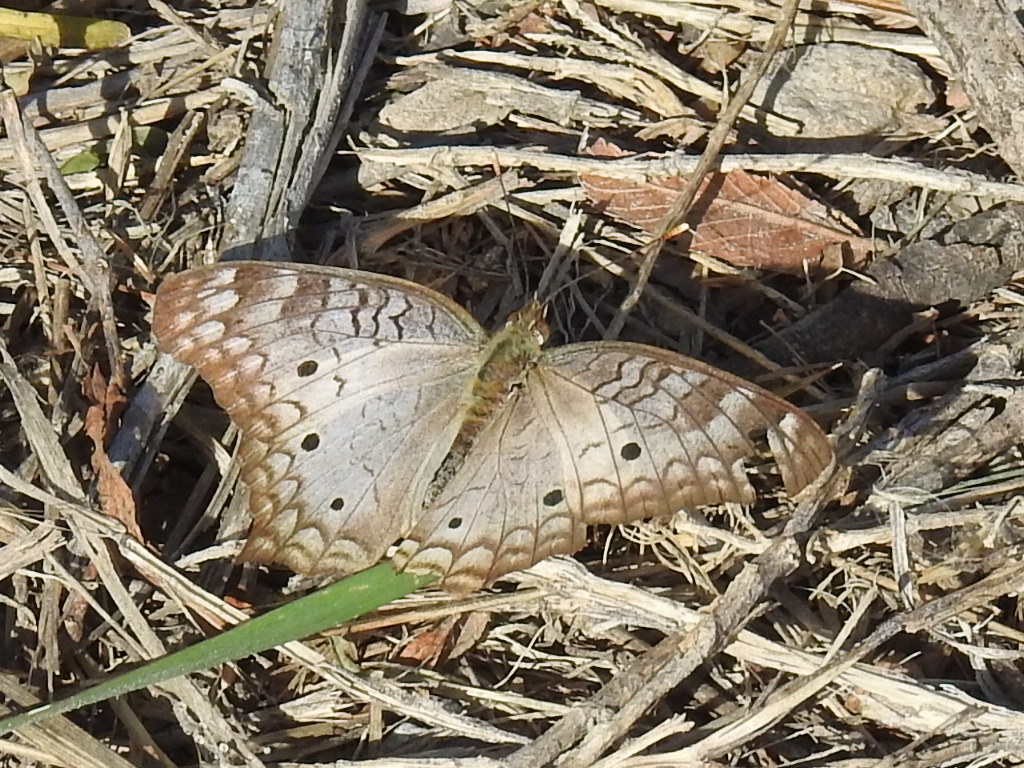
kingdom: Animalia
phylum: Arthropoda
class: Insecta
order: Lepidoptera
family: Nymphalidae
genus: Anartia
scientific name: Anartia jatrophae
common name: White peacock
